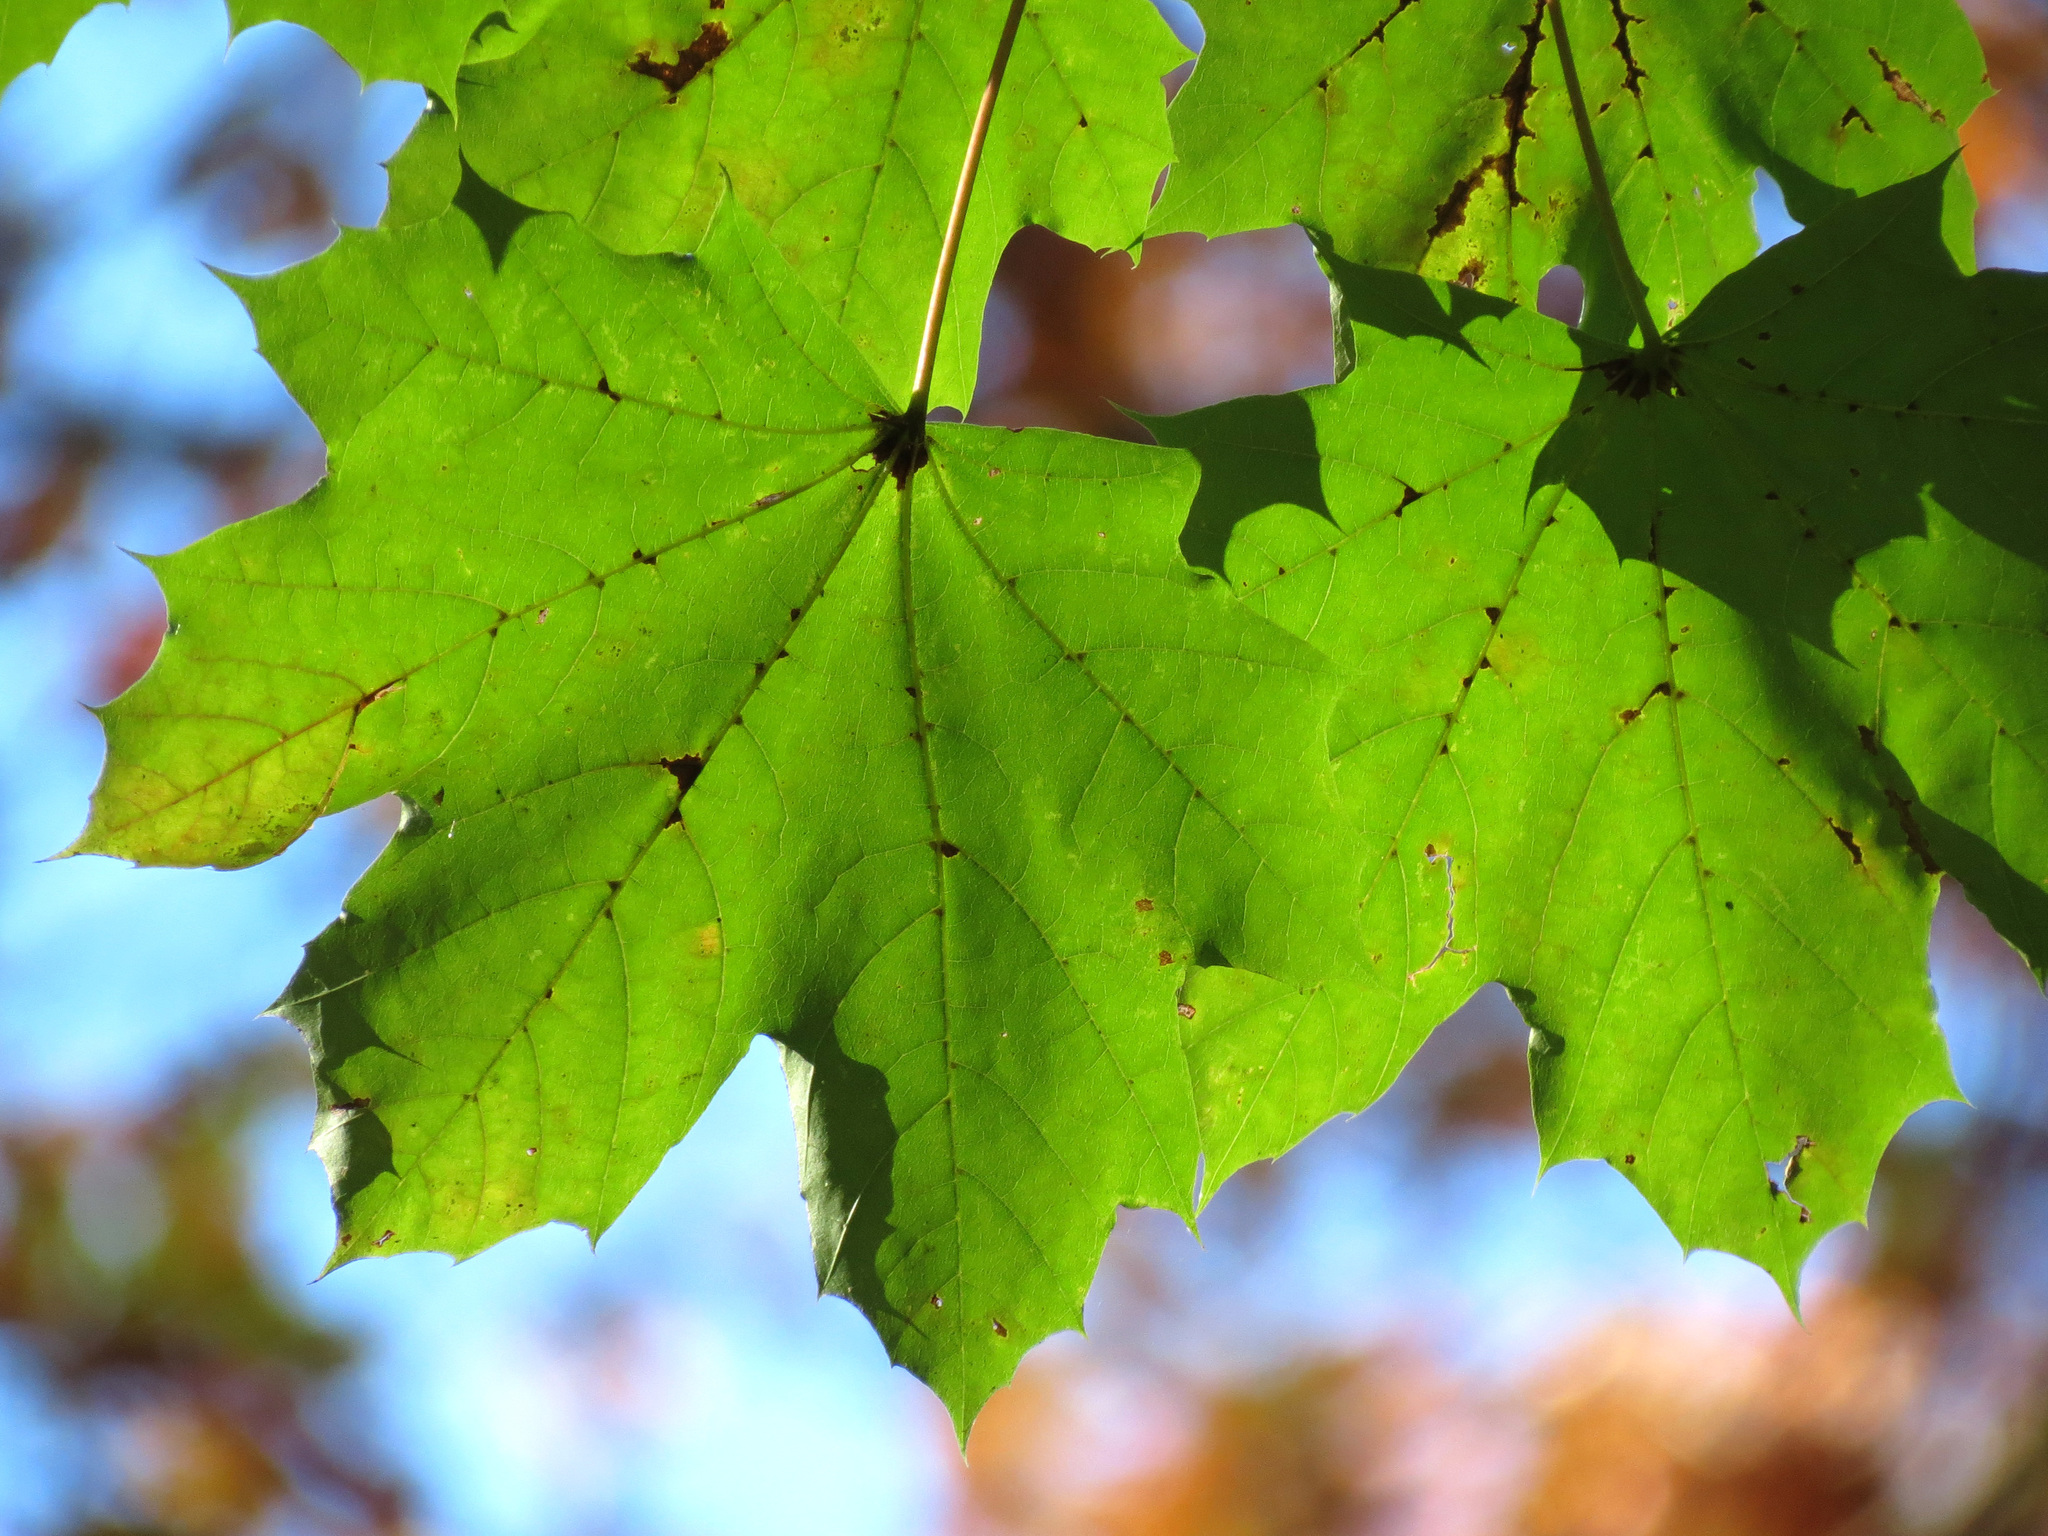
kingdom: Plantae
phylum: Tracheophyta
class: Magnoliopsida
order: Sapindales
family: Sapindaceae
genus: Acer
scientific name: Acer platanoides
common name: Norway maple
